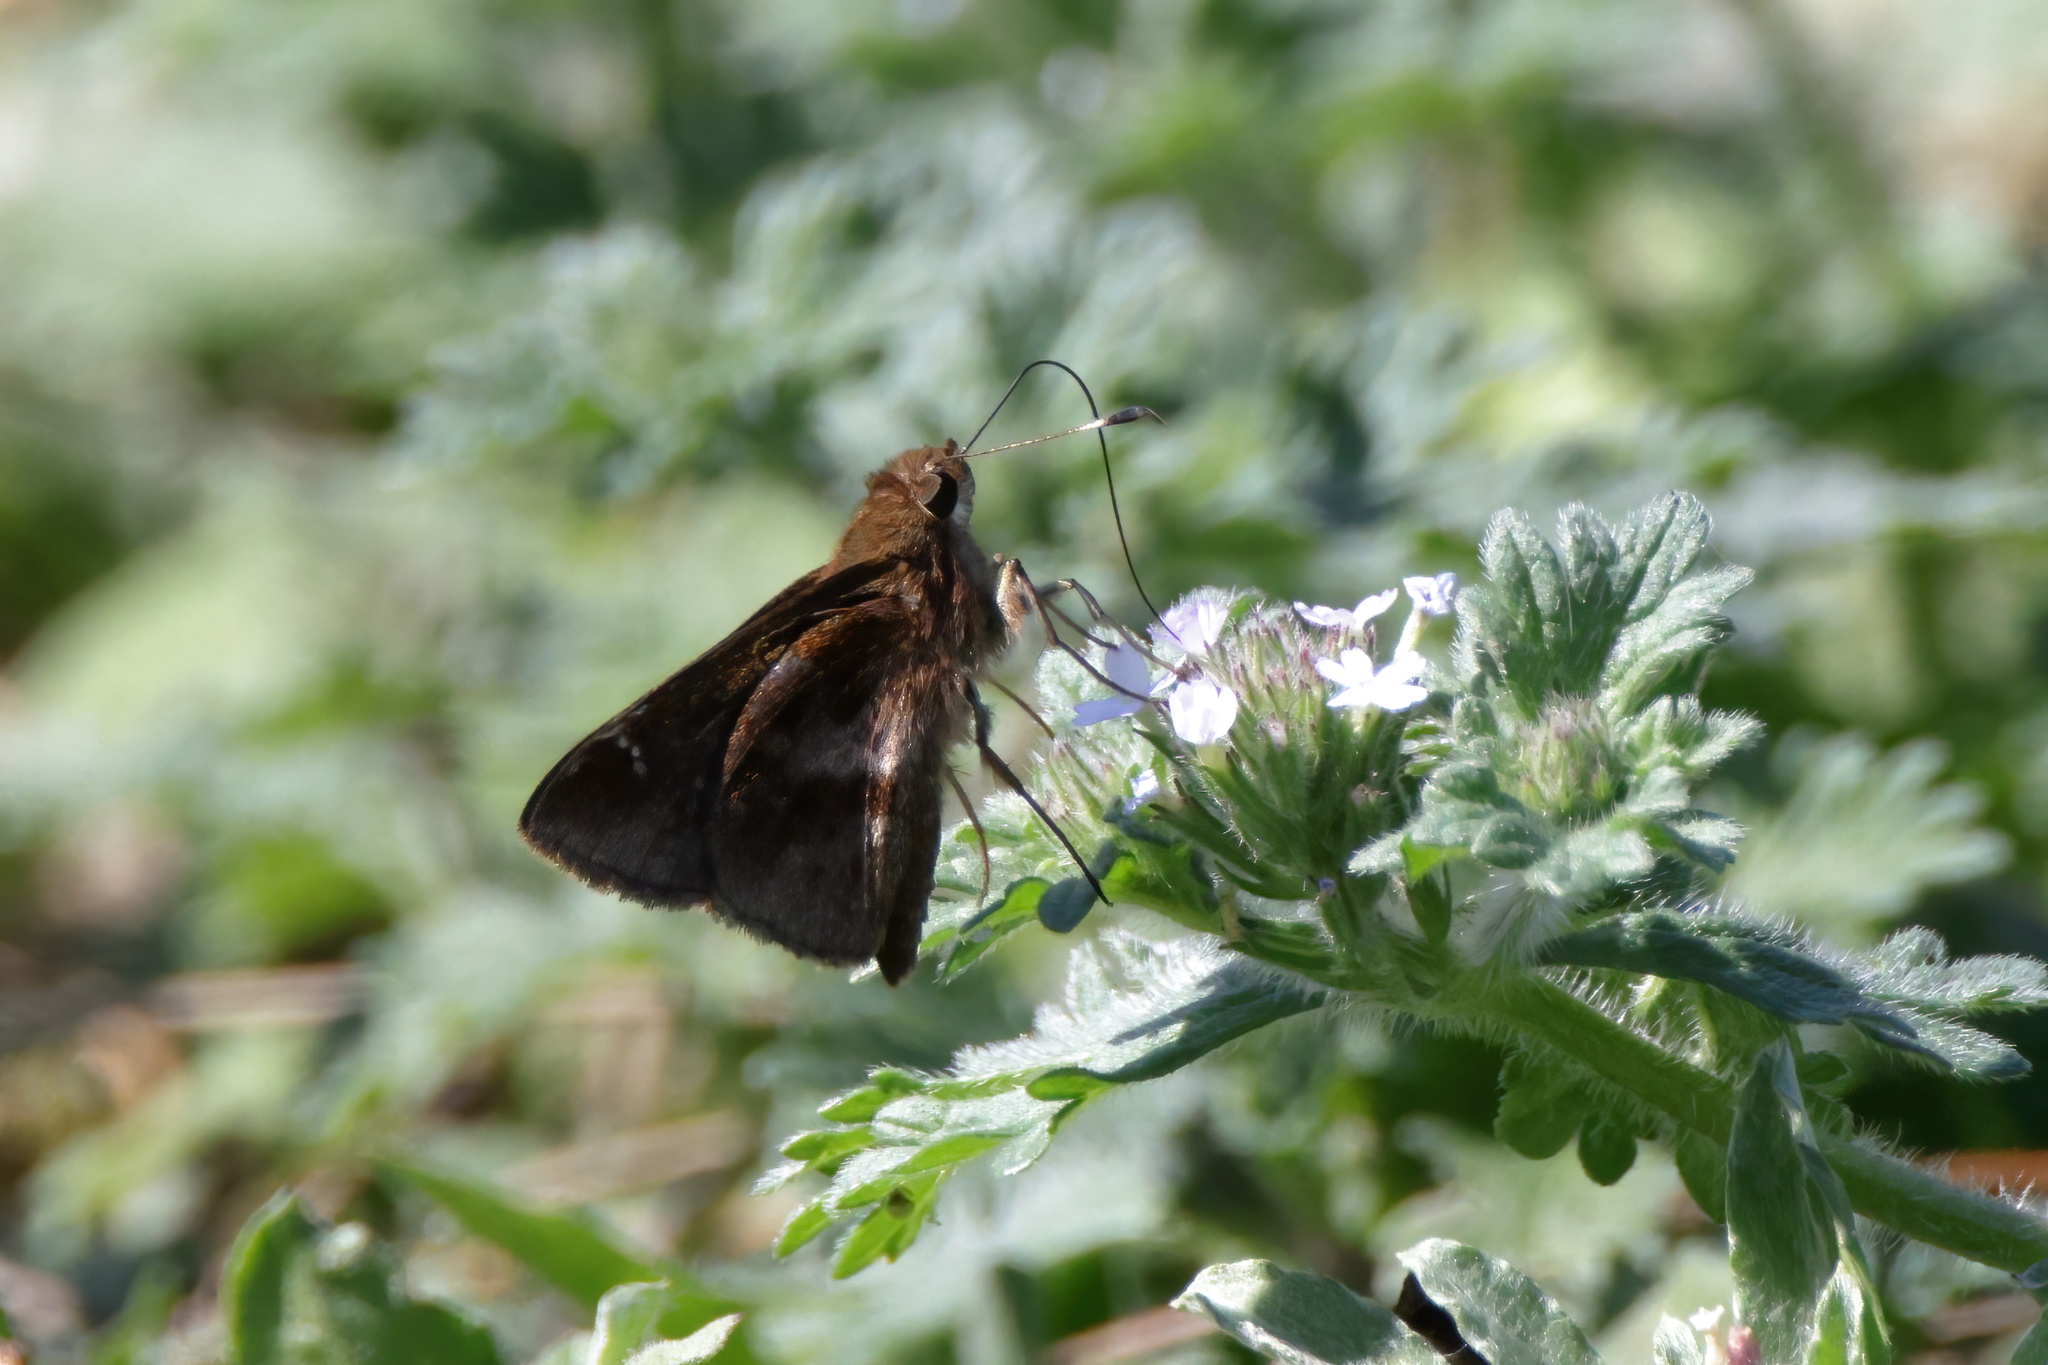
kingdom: Animalia
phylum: Arthropoda
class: Insecta
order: Lepidoptera
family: Hesperiidae
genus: Lerema
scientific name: Lerema accius
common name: Clouded skipper
